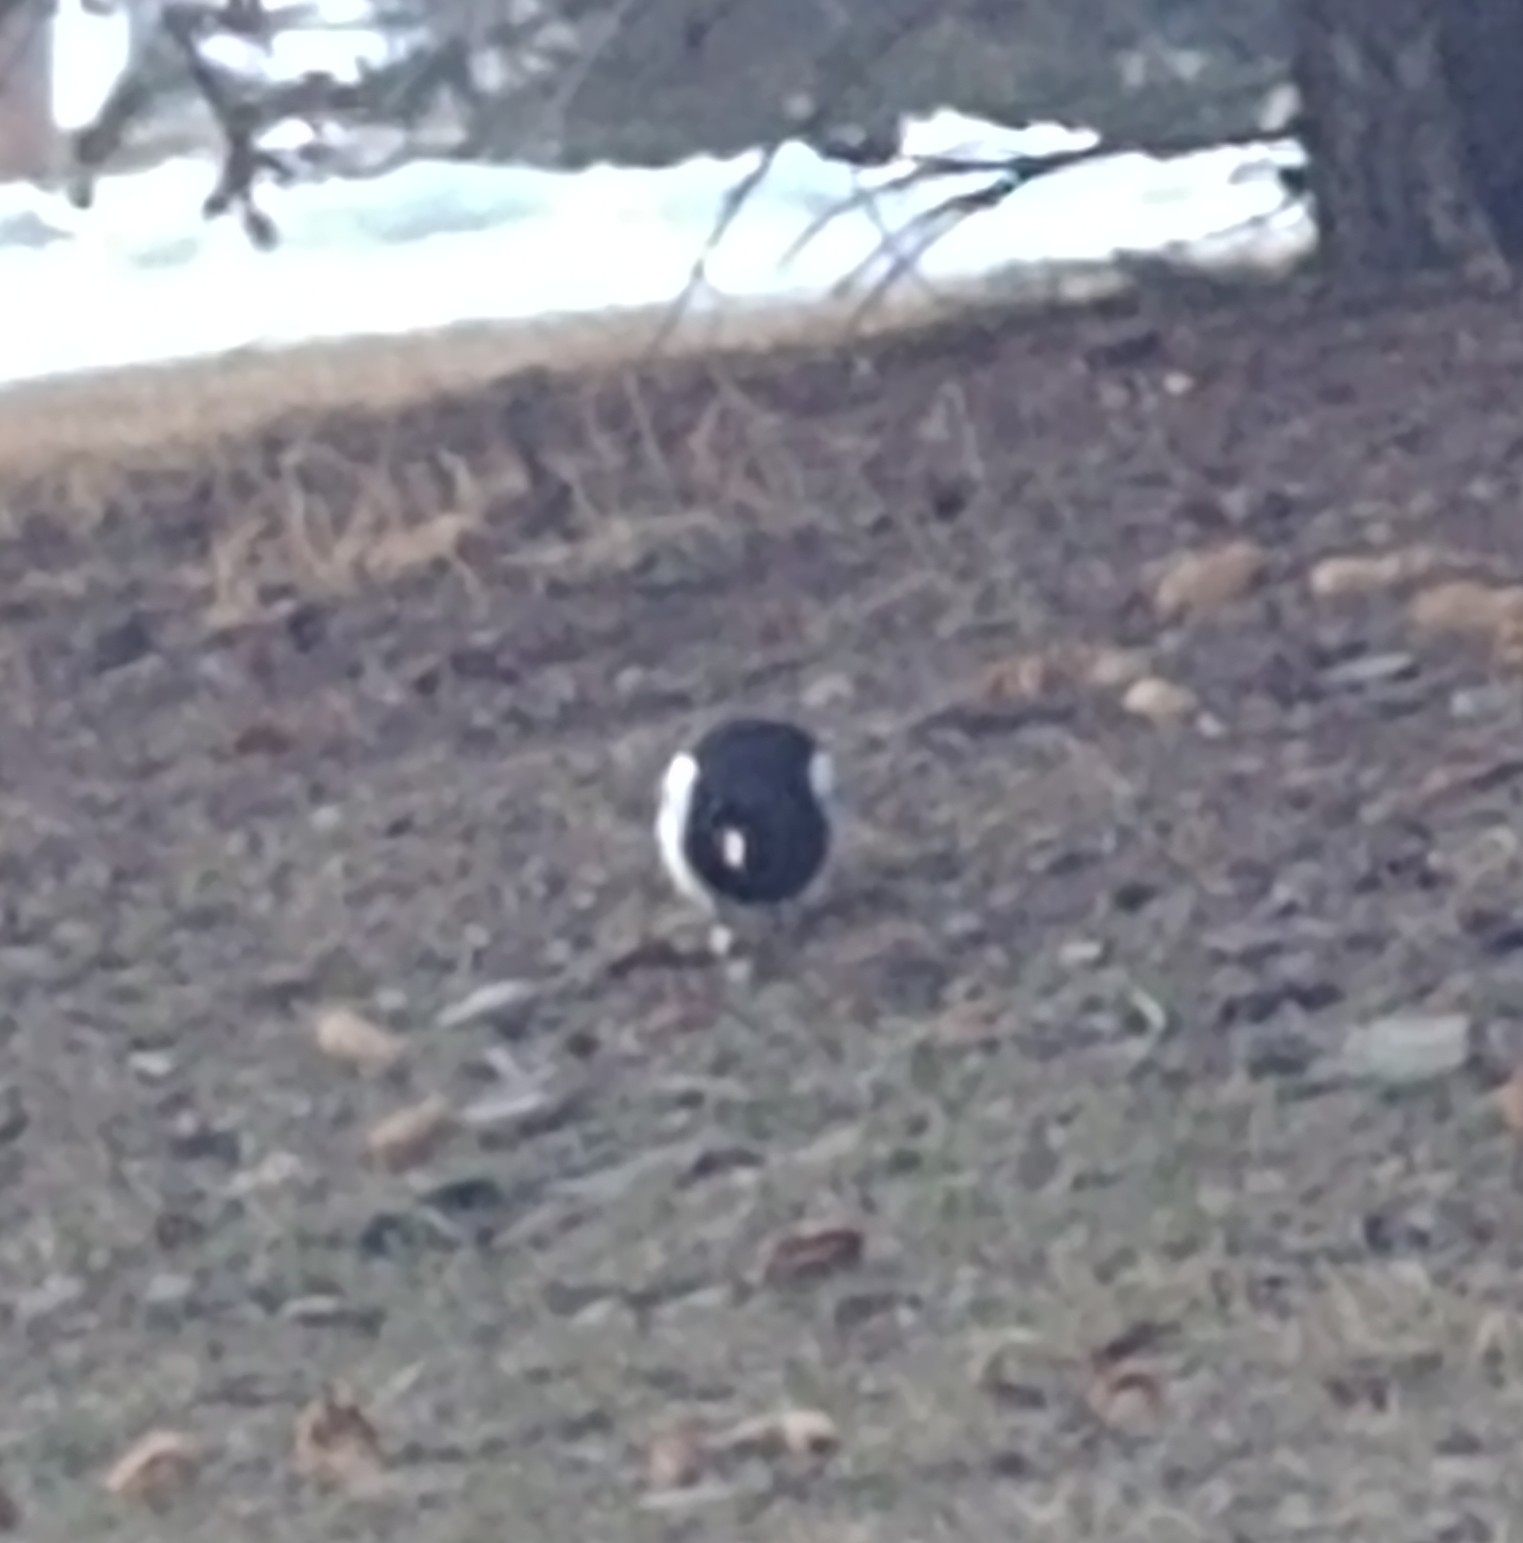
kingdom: Animalia
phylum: Chordata
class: Aves
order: Passeriformes
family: Corvidae
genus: Pica
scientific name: Pica hudsonia
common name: Black-billed magpie
